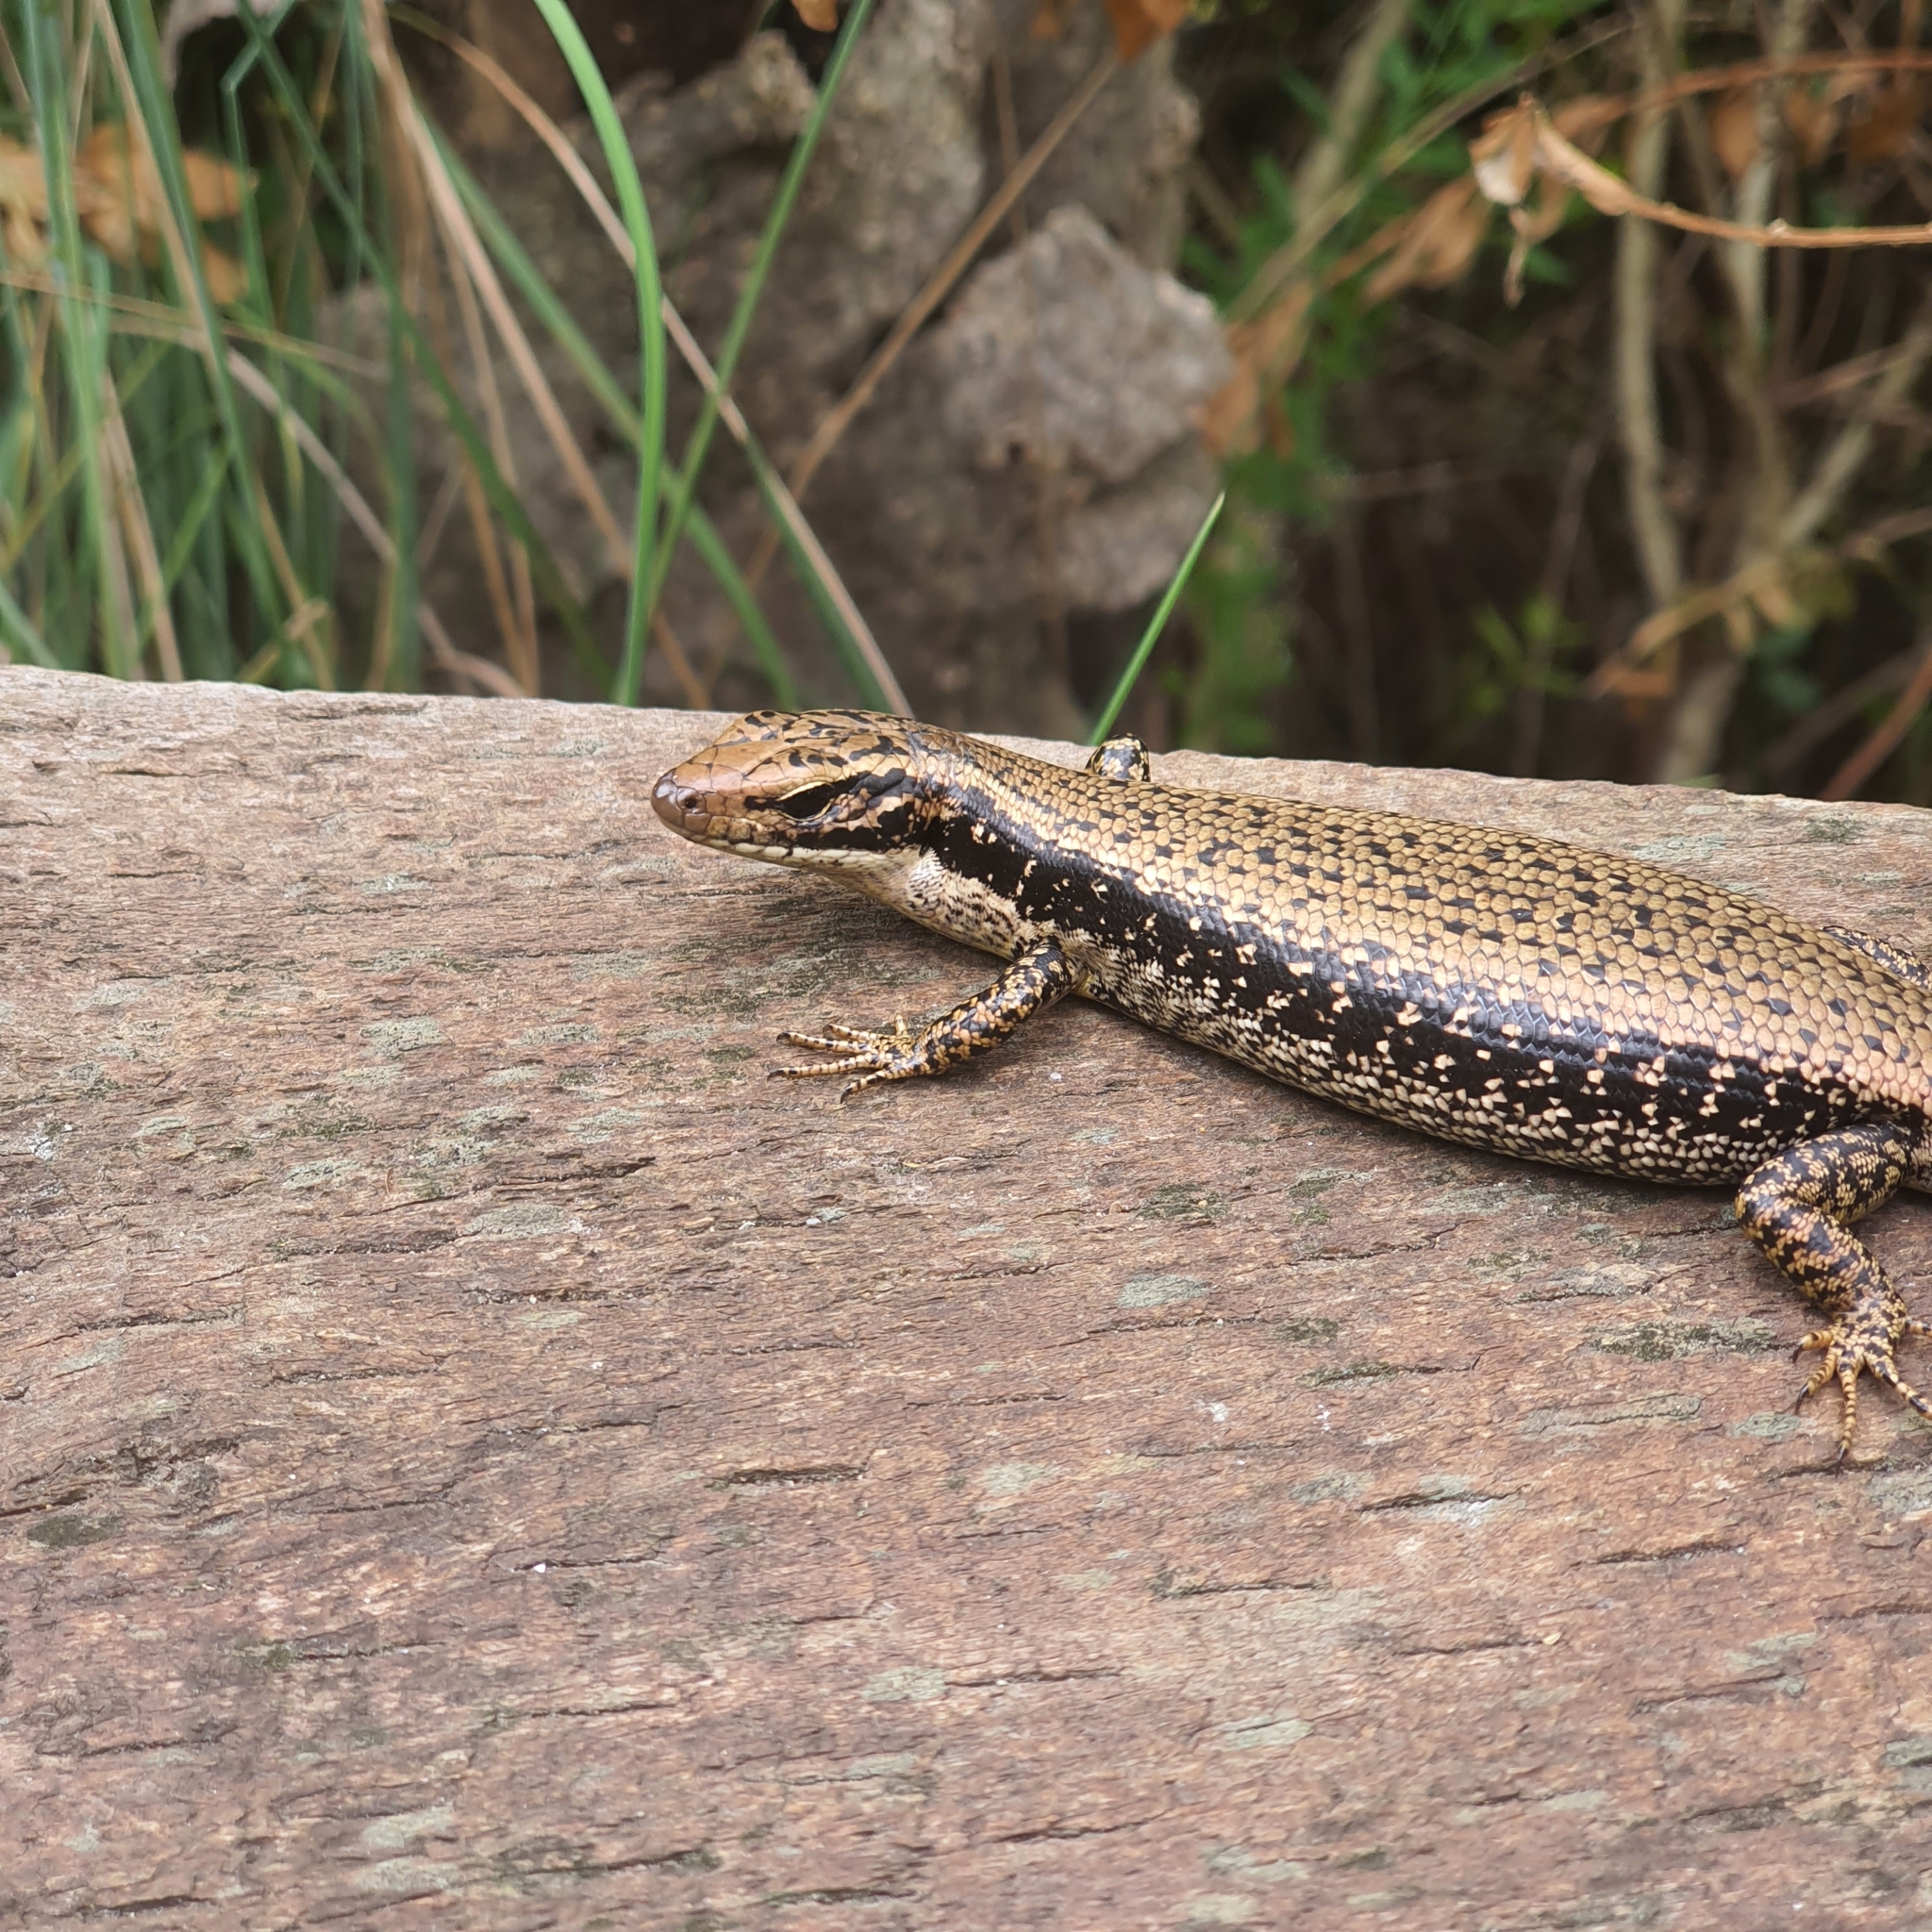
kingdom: Animalia
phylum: Chordata
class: Squamata
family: Scincidae
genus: Eulamprus
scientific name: Eulamprus heatwolei
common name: Warm-temperate water-skink
